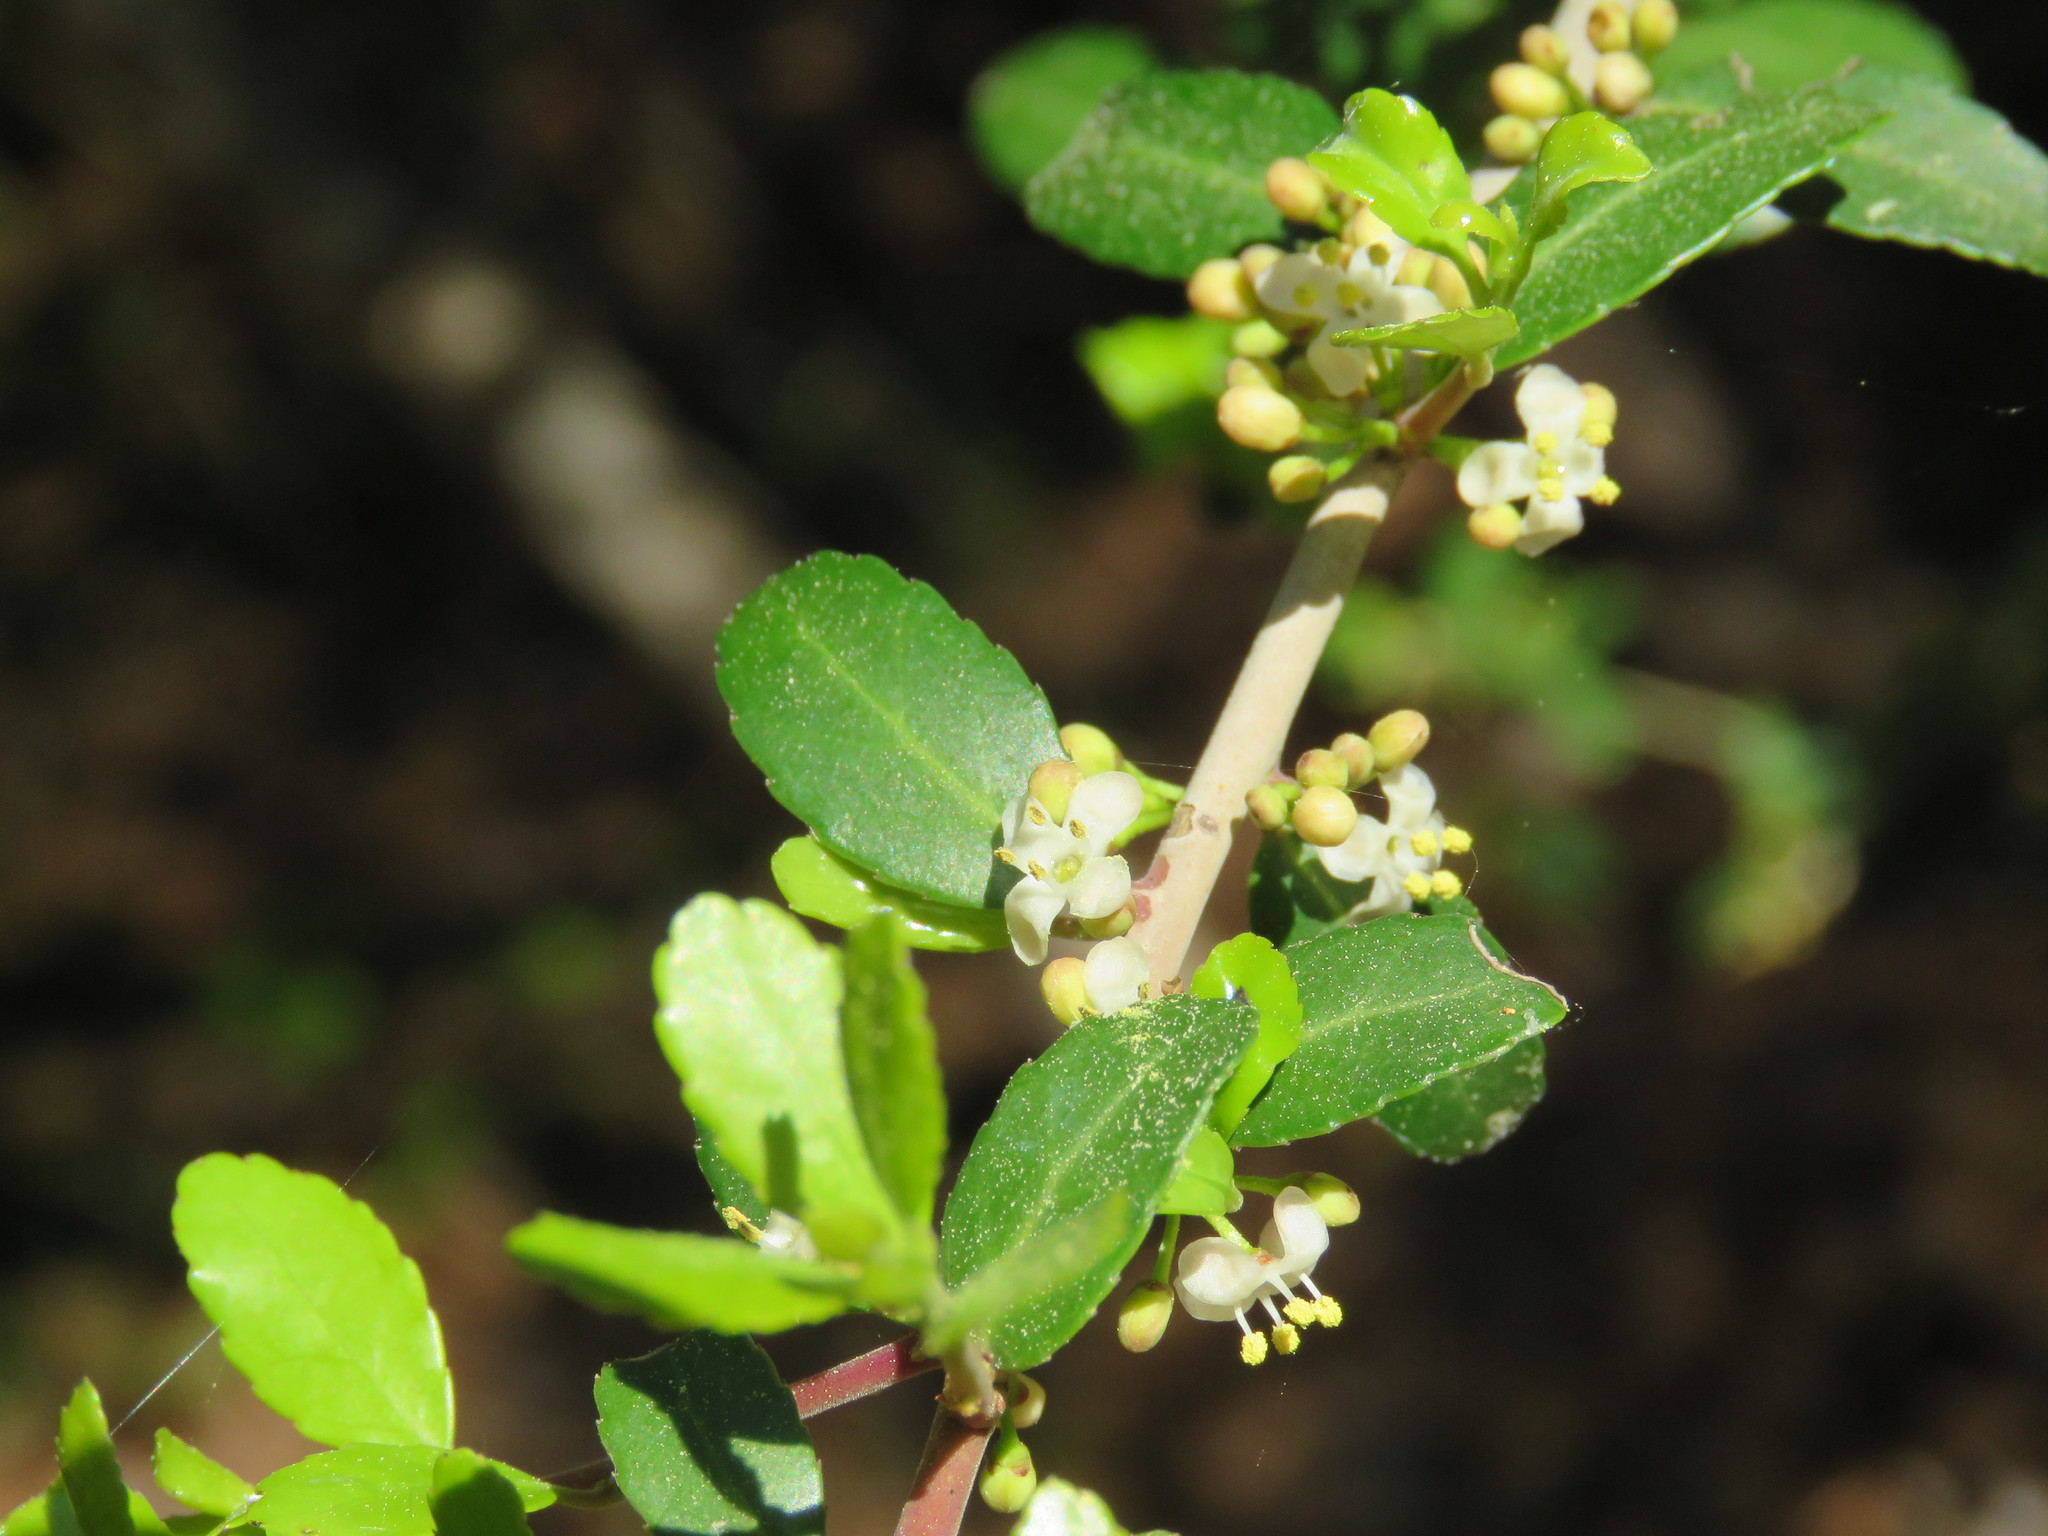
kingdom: Plantae
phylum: Tracheophyta
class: Magnoliopsida
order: Aquifoliales
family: Aquifoliaceae
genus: Ilex
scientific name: Ilex vomitoria
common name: Yaupon holly
